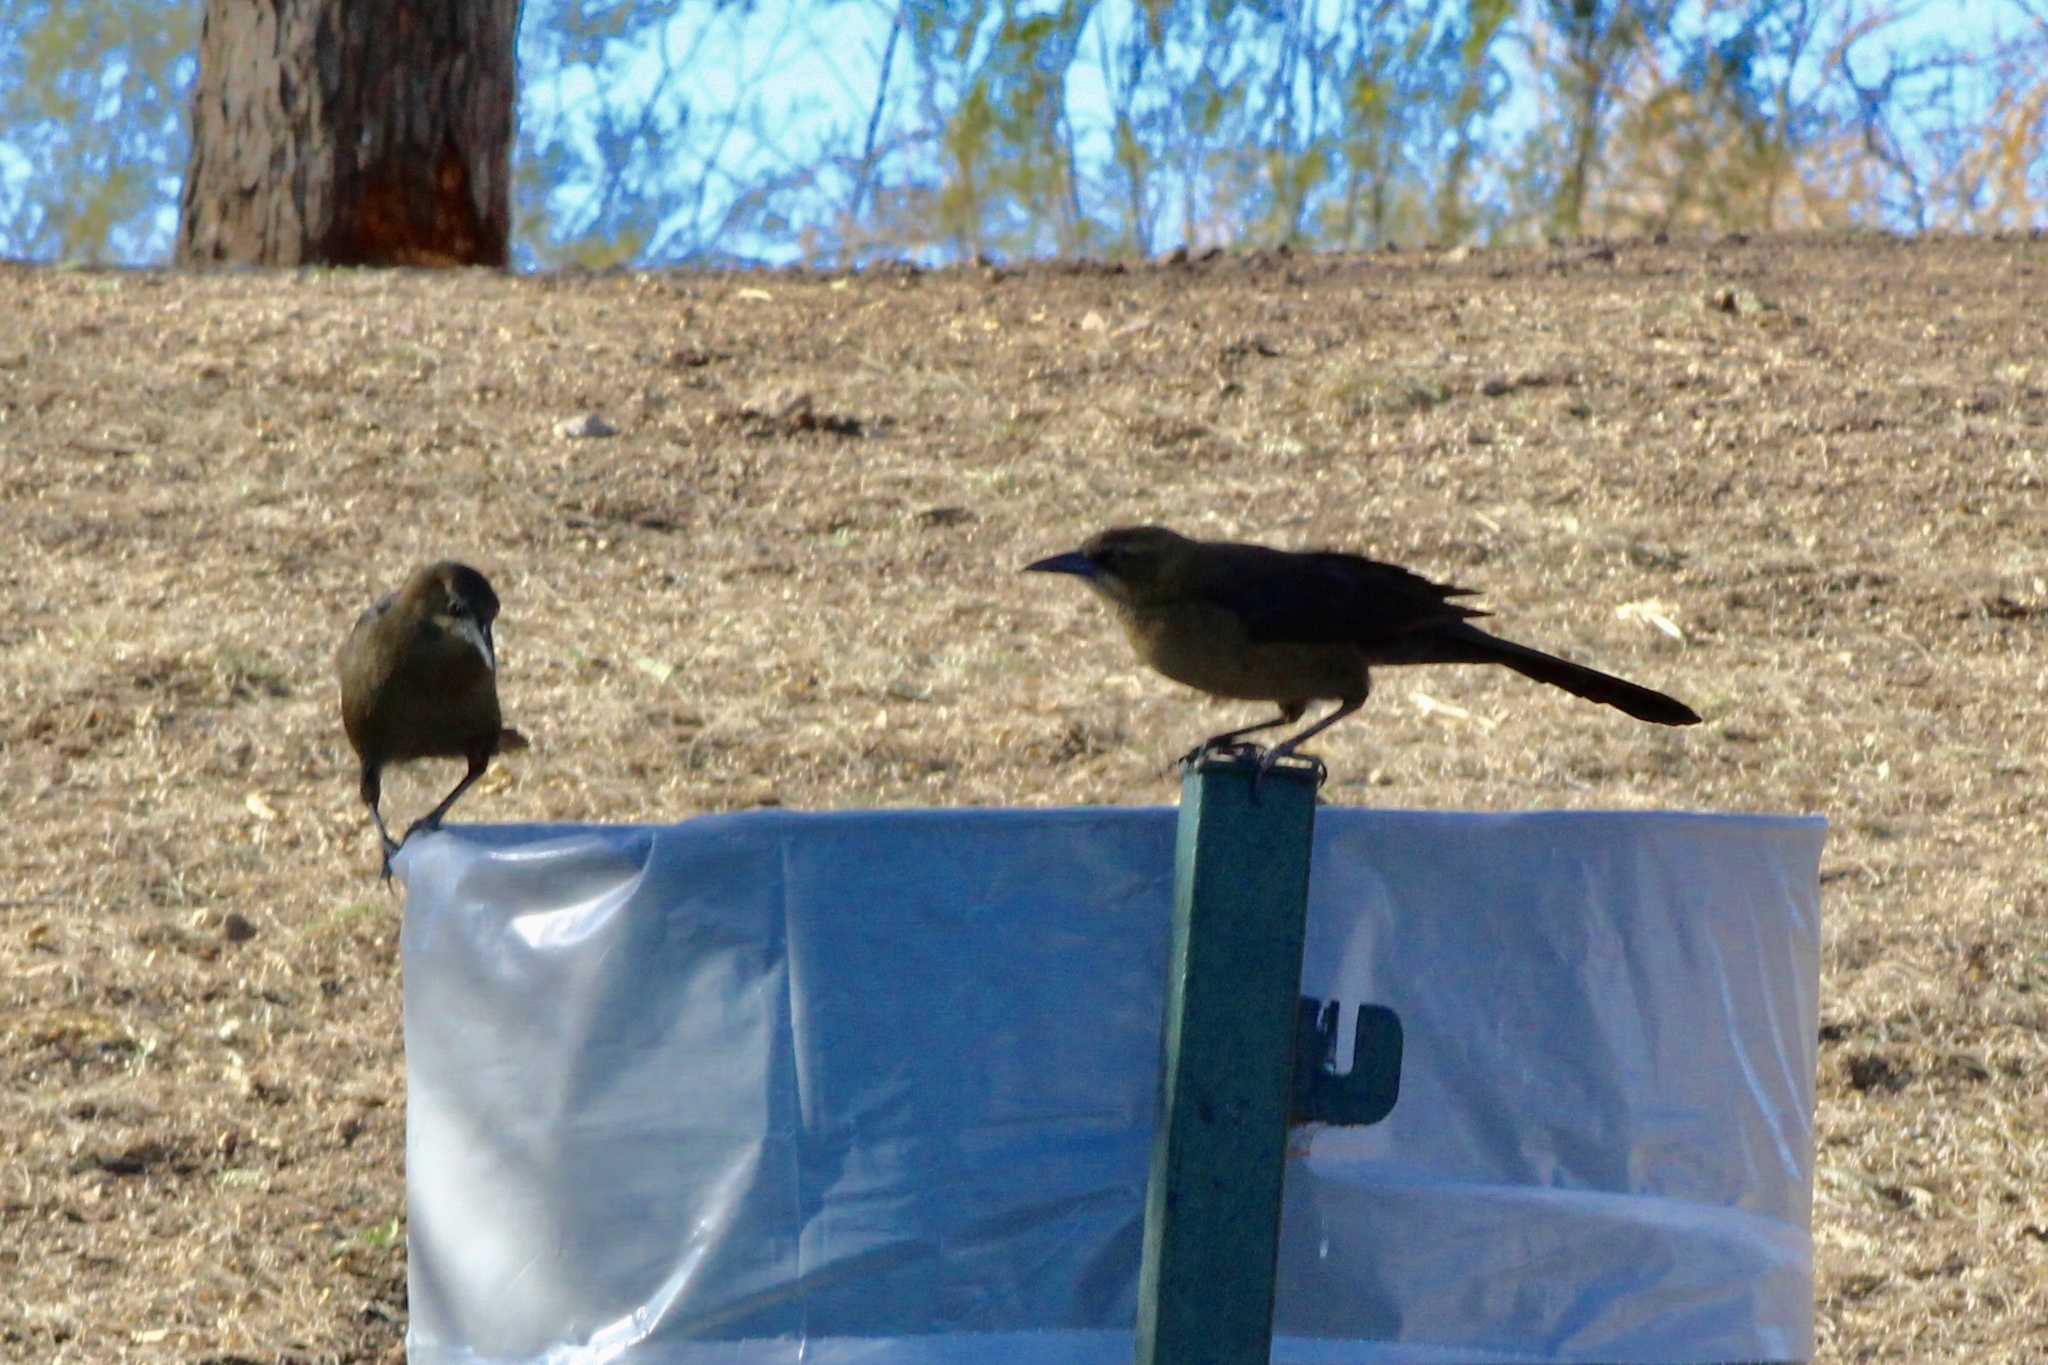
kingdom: Animalia
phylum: Chordata
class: Aves
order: Passeriformes
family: Icteridae
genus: Quiscalus
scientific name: Quiscalus mexicanus
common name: Great-tailed grackle
